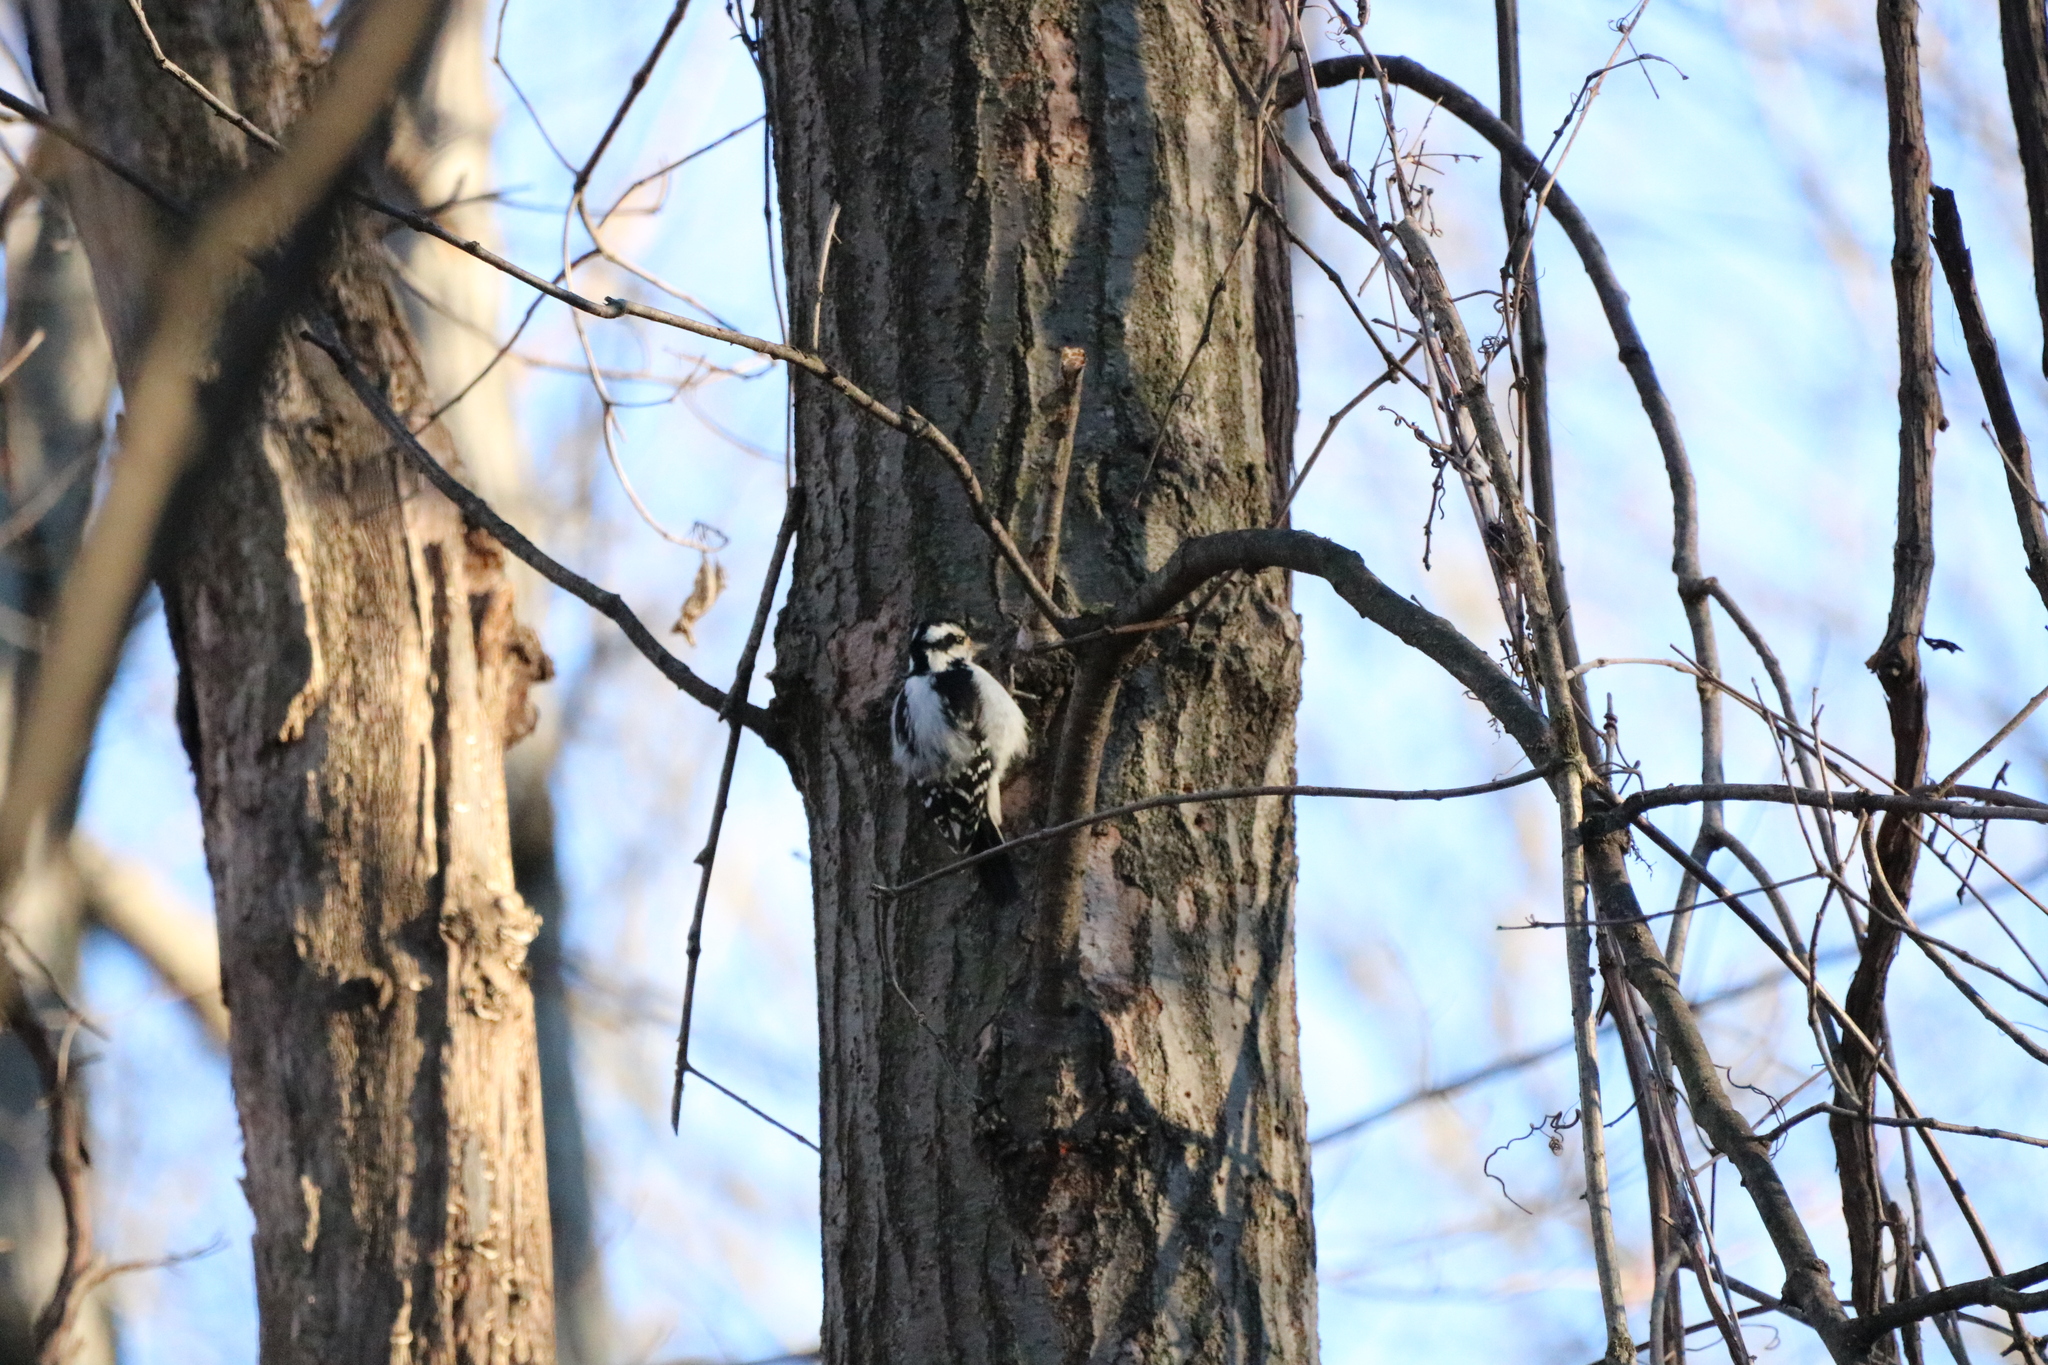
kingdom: Animalia
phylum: Chordata
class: Aves
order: Piciformes
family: Picidae
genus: Dryobates
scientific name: Dryobates pubescens
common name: Downy woodpecker
